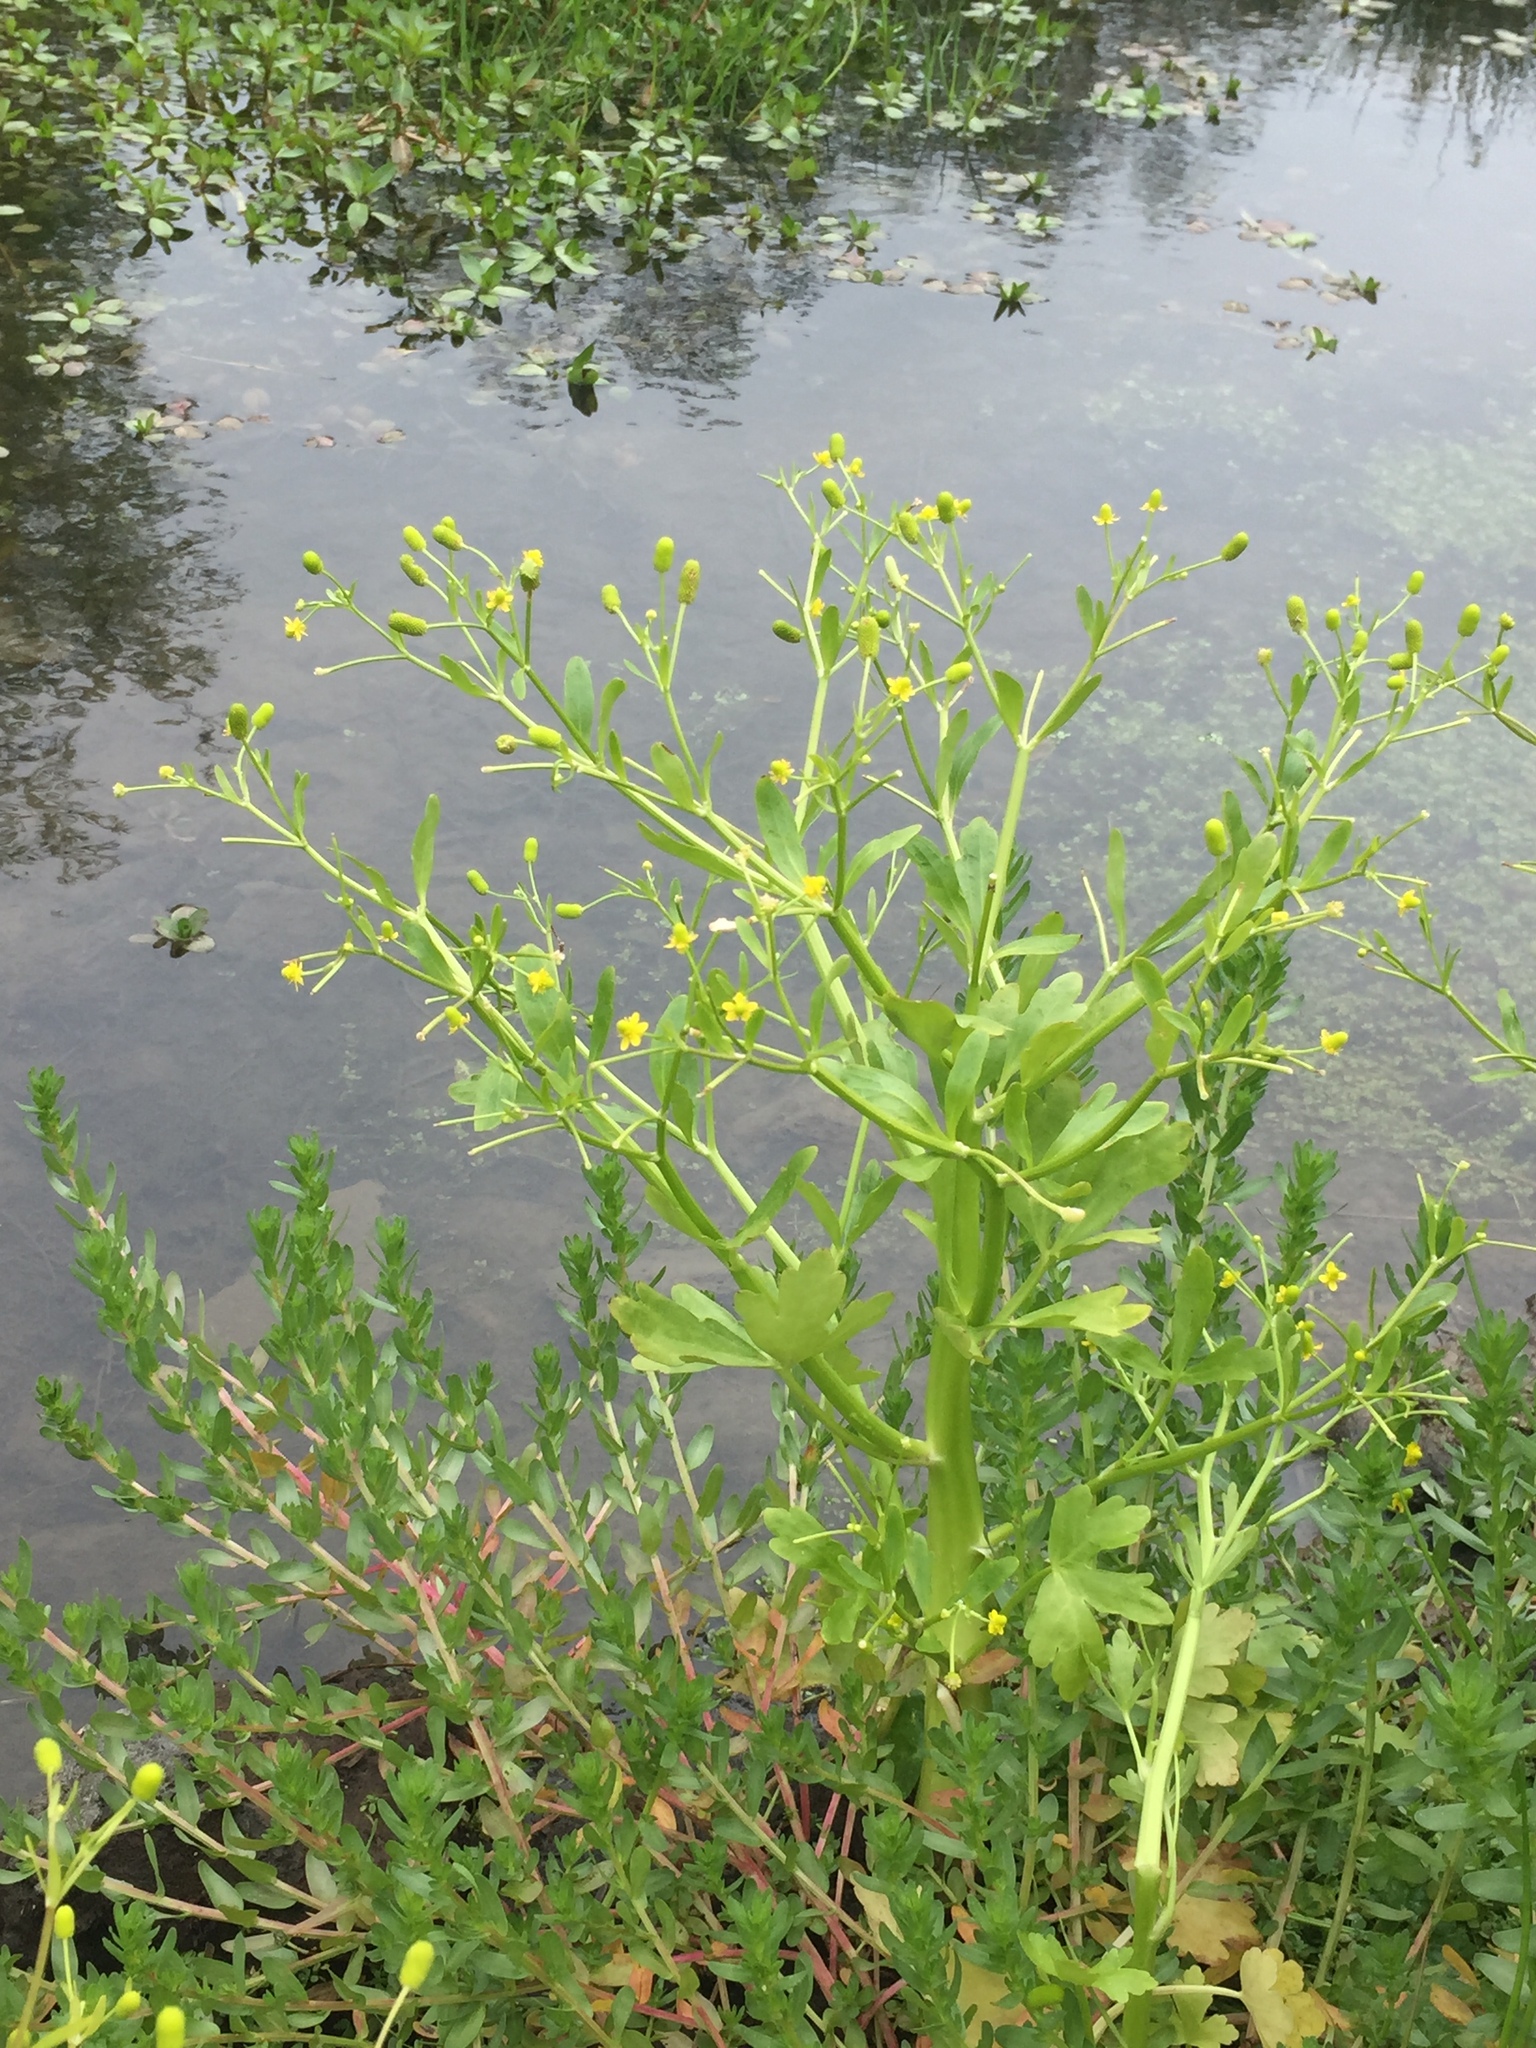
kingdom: Plantae
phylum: Tracheophyta
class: Magnoliopsida
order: Ranunculales
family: Ranunculaceae
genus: Ranunculus
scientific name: Ranunculus sceleratus
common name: Celery-leaved buttercup
